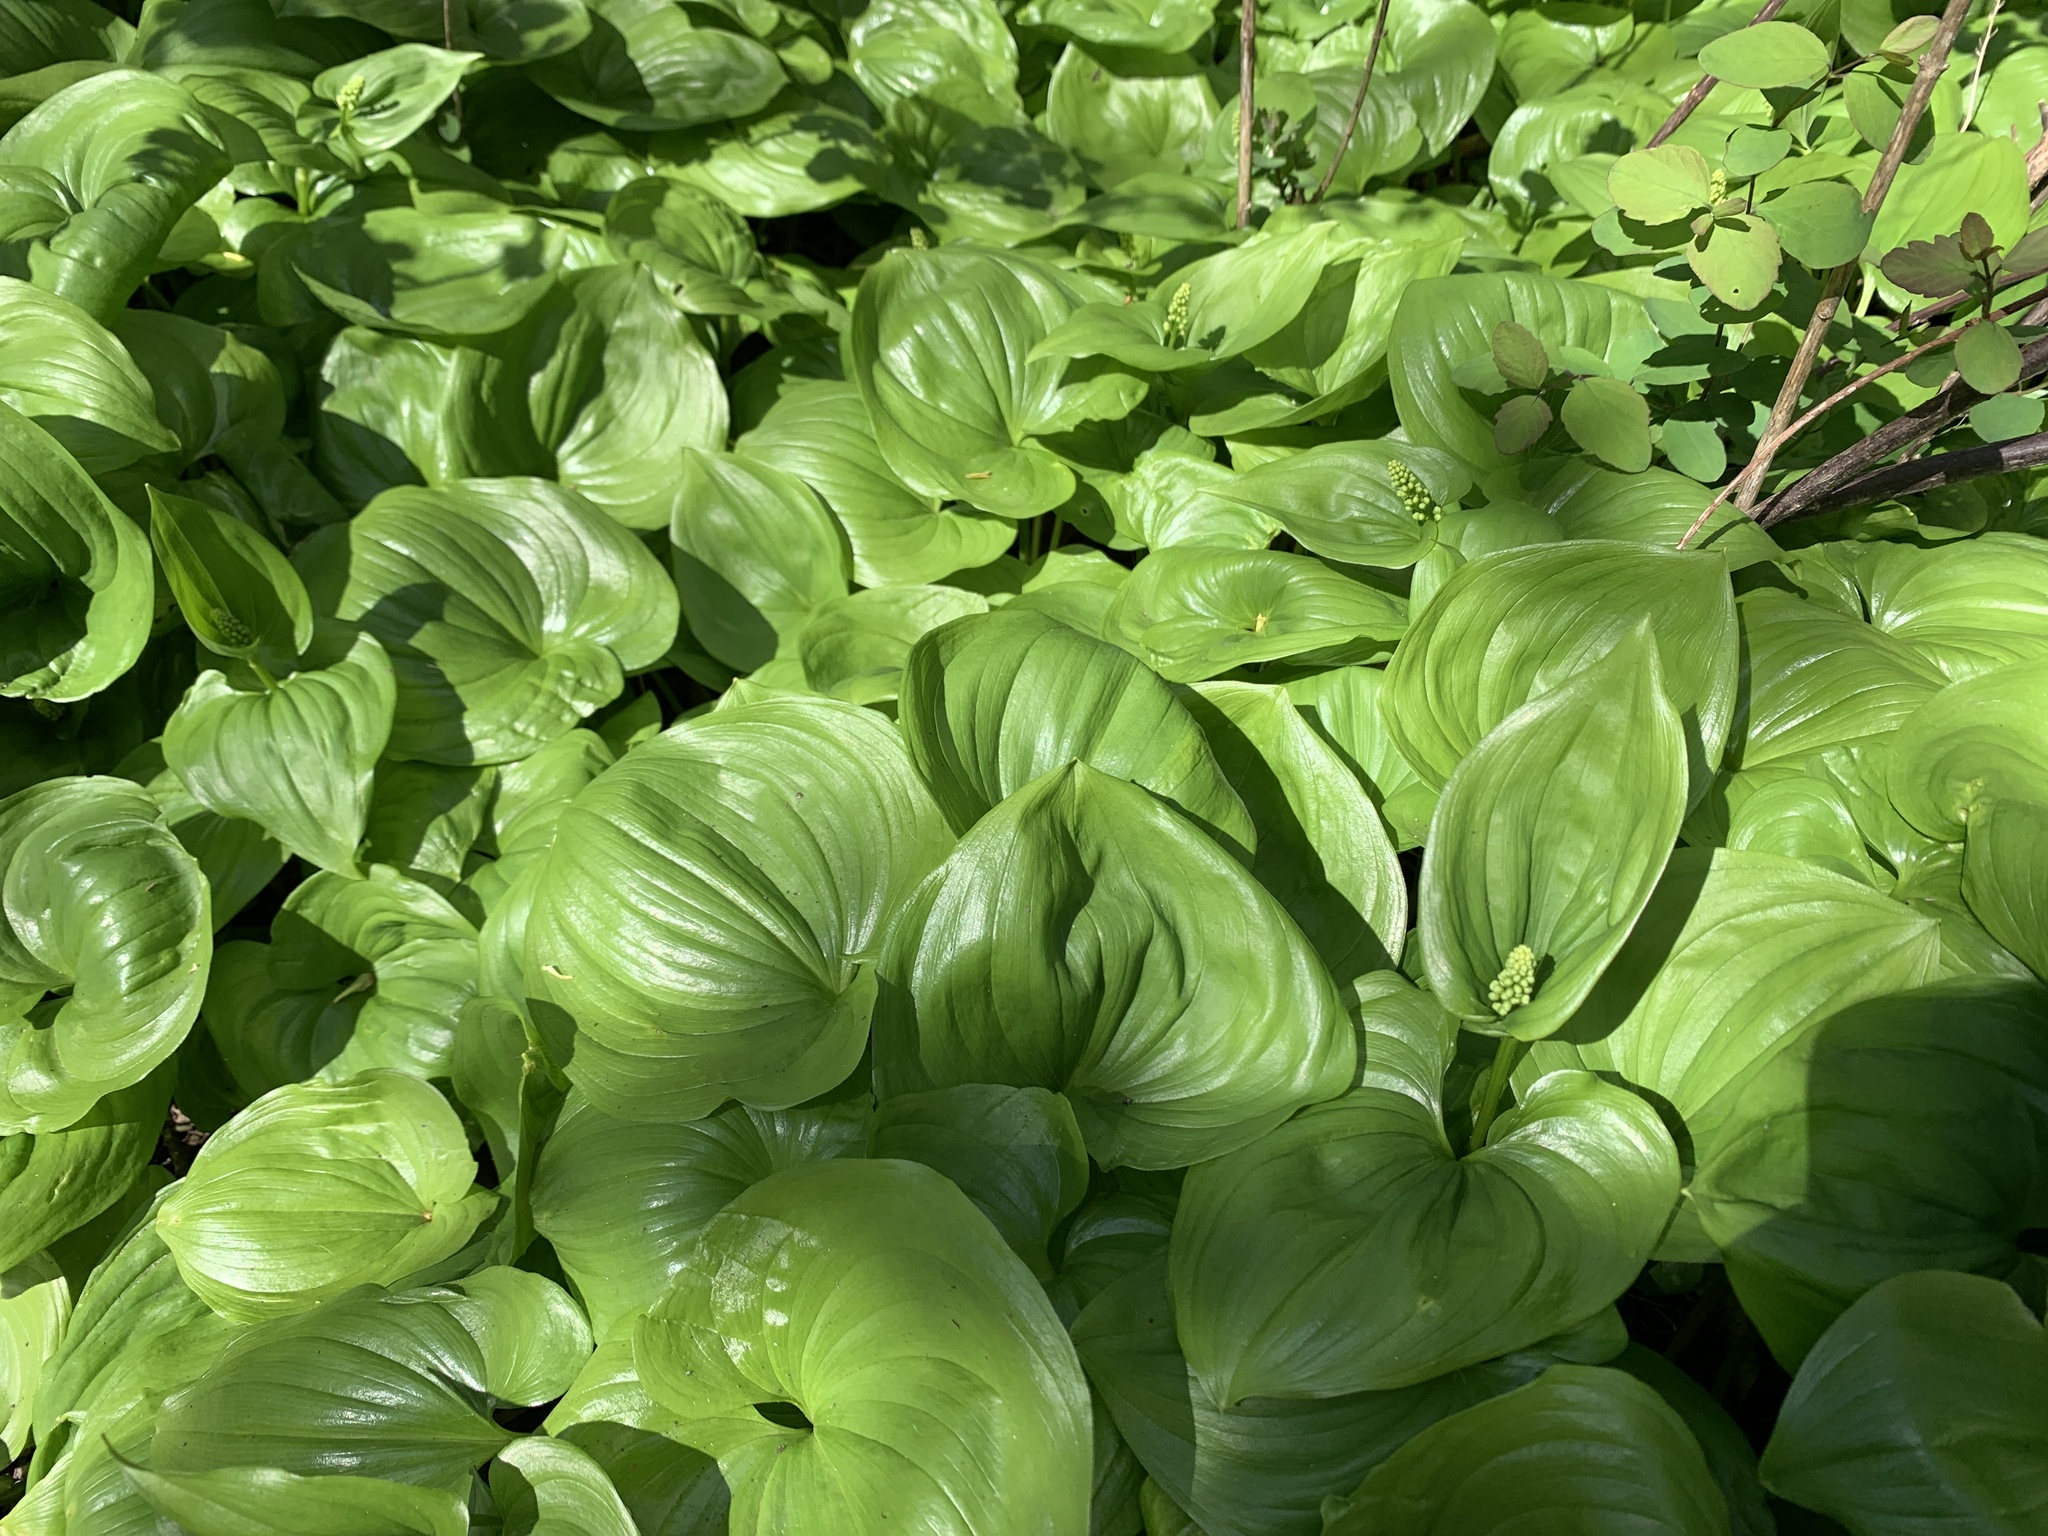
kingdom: Plantae
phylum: Tracheophyta
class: Liliopsida
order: Asparagales
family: Asparagaceae
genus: Maianthemum
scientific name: Maianthemum dilatatum
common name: False lily-of-the-valley
